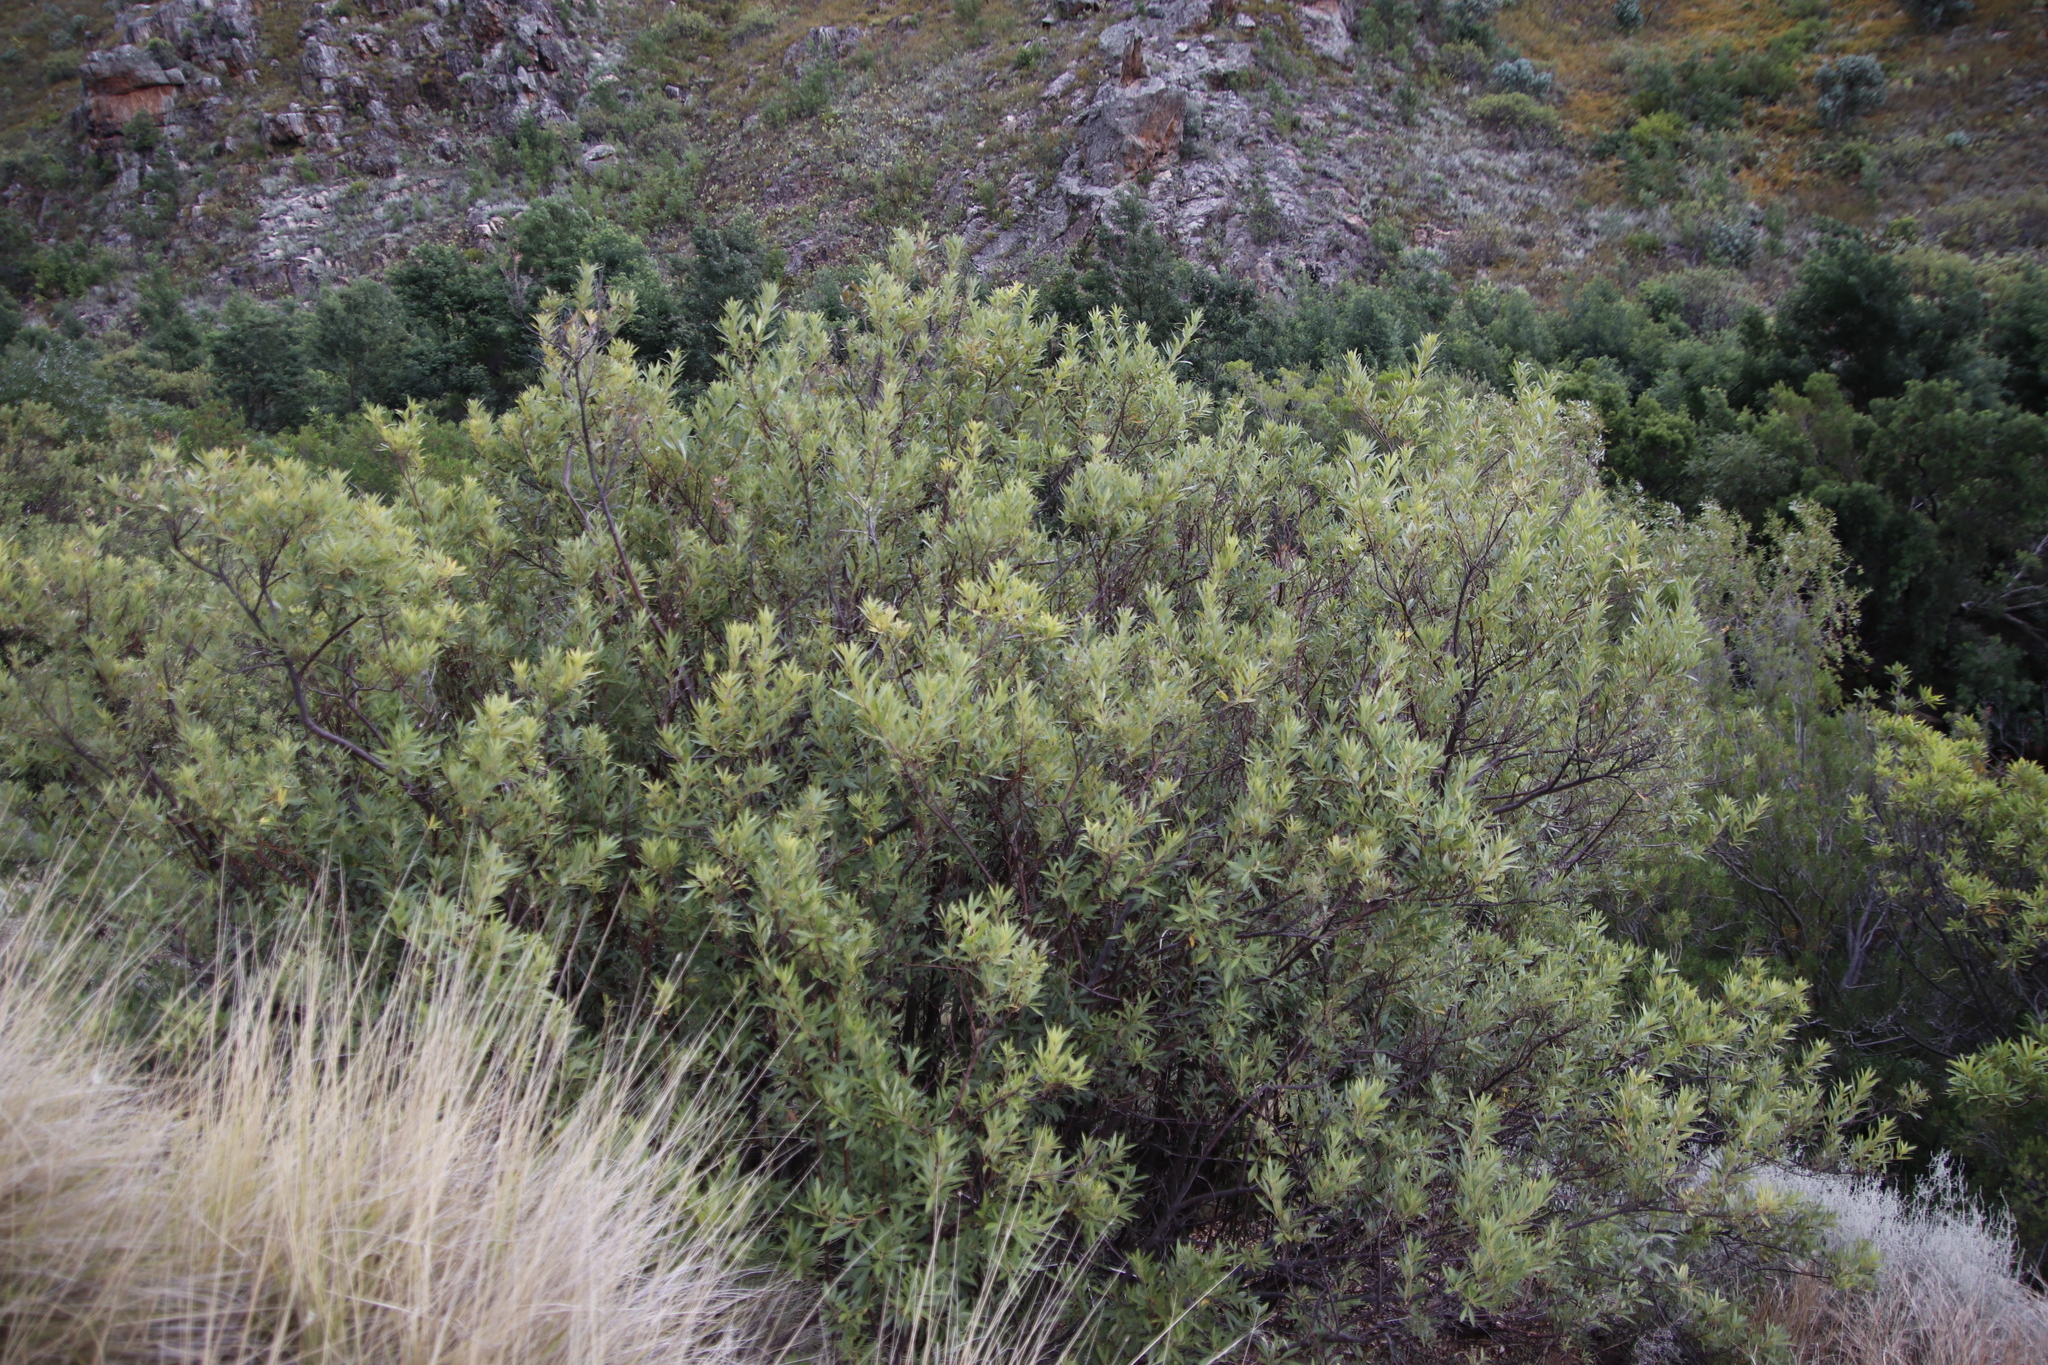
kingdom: Plantae
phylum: Tracheophyta
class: Magnoliopsida
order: Sapindales
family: Anacardiaceae
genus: Searsia
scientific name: Searsia angustifolia
